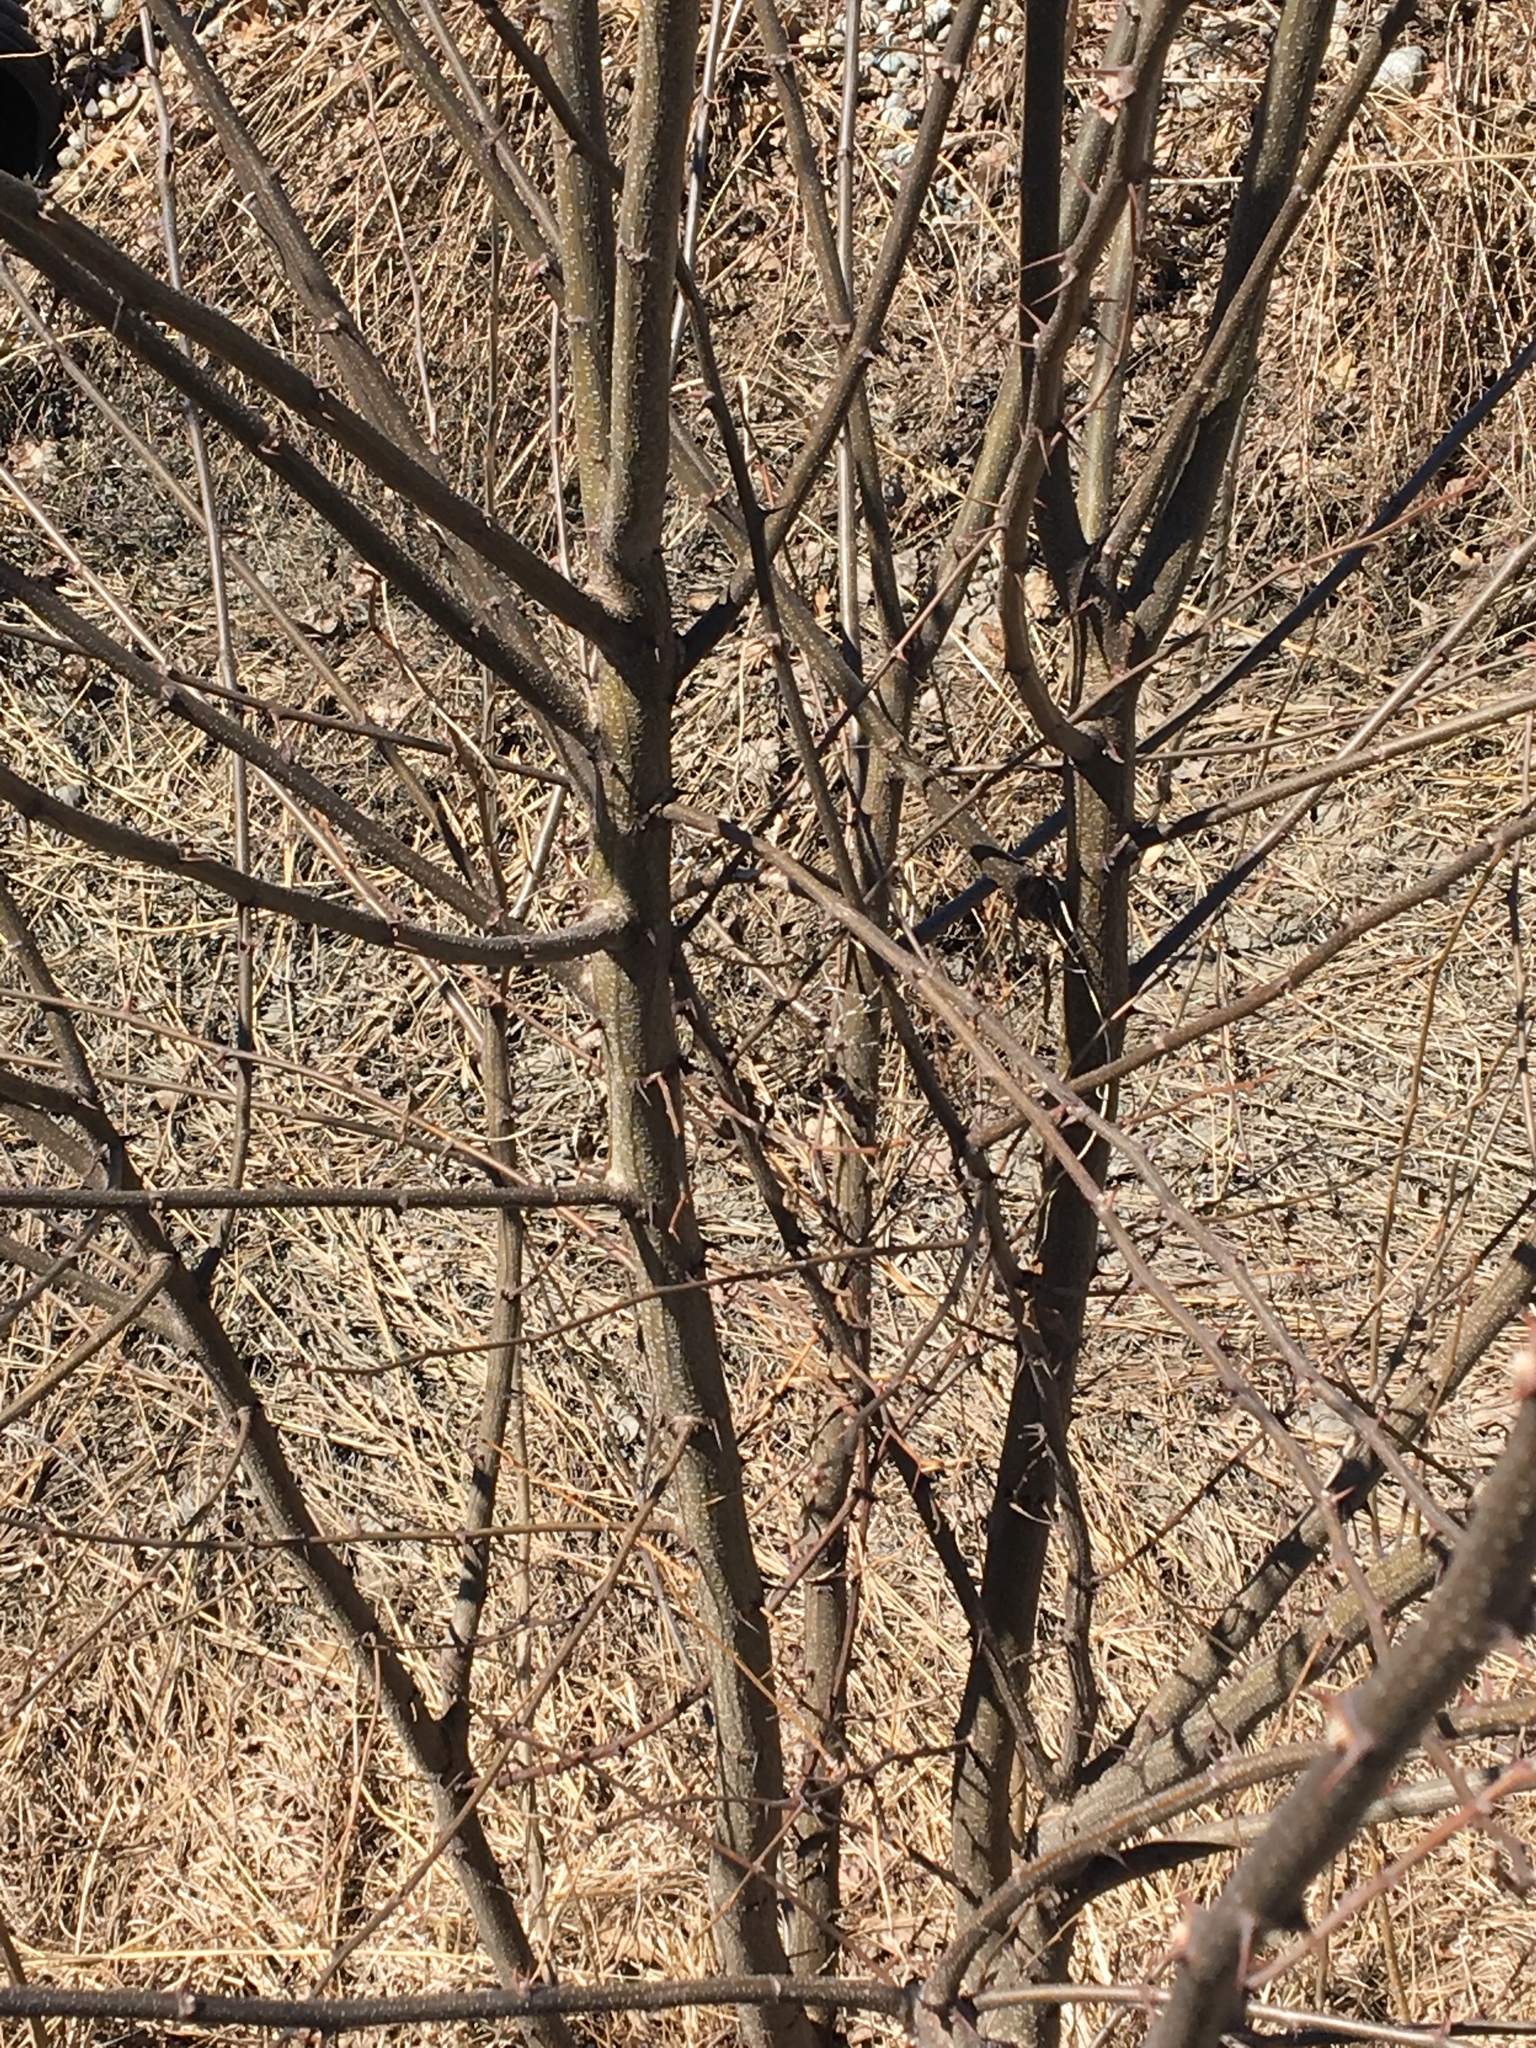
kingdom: Plantae
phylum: Tracheophyta
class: Magnoliopsida
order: Fabales
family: Fabaceae
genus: Robinia
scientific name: Robinia pseudoacacia
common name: Black locust
